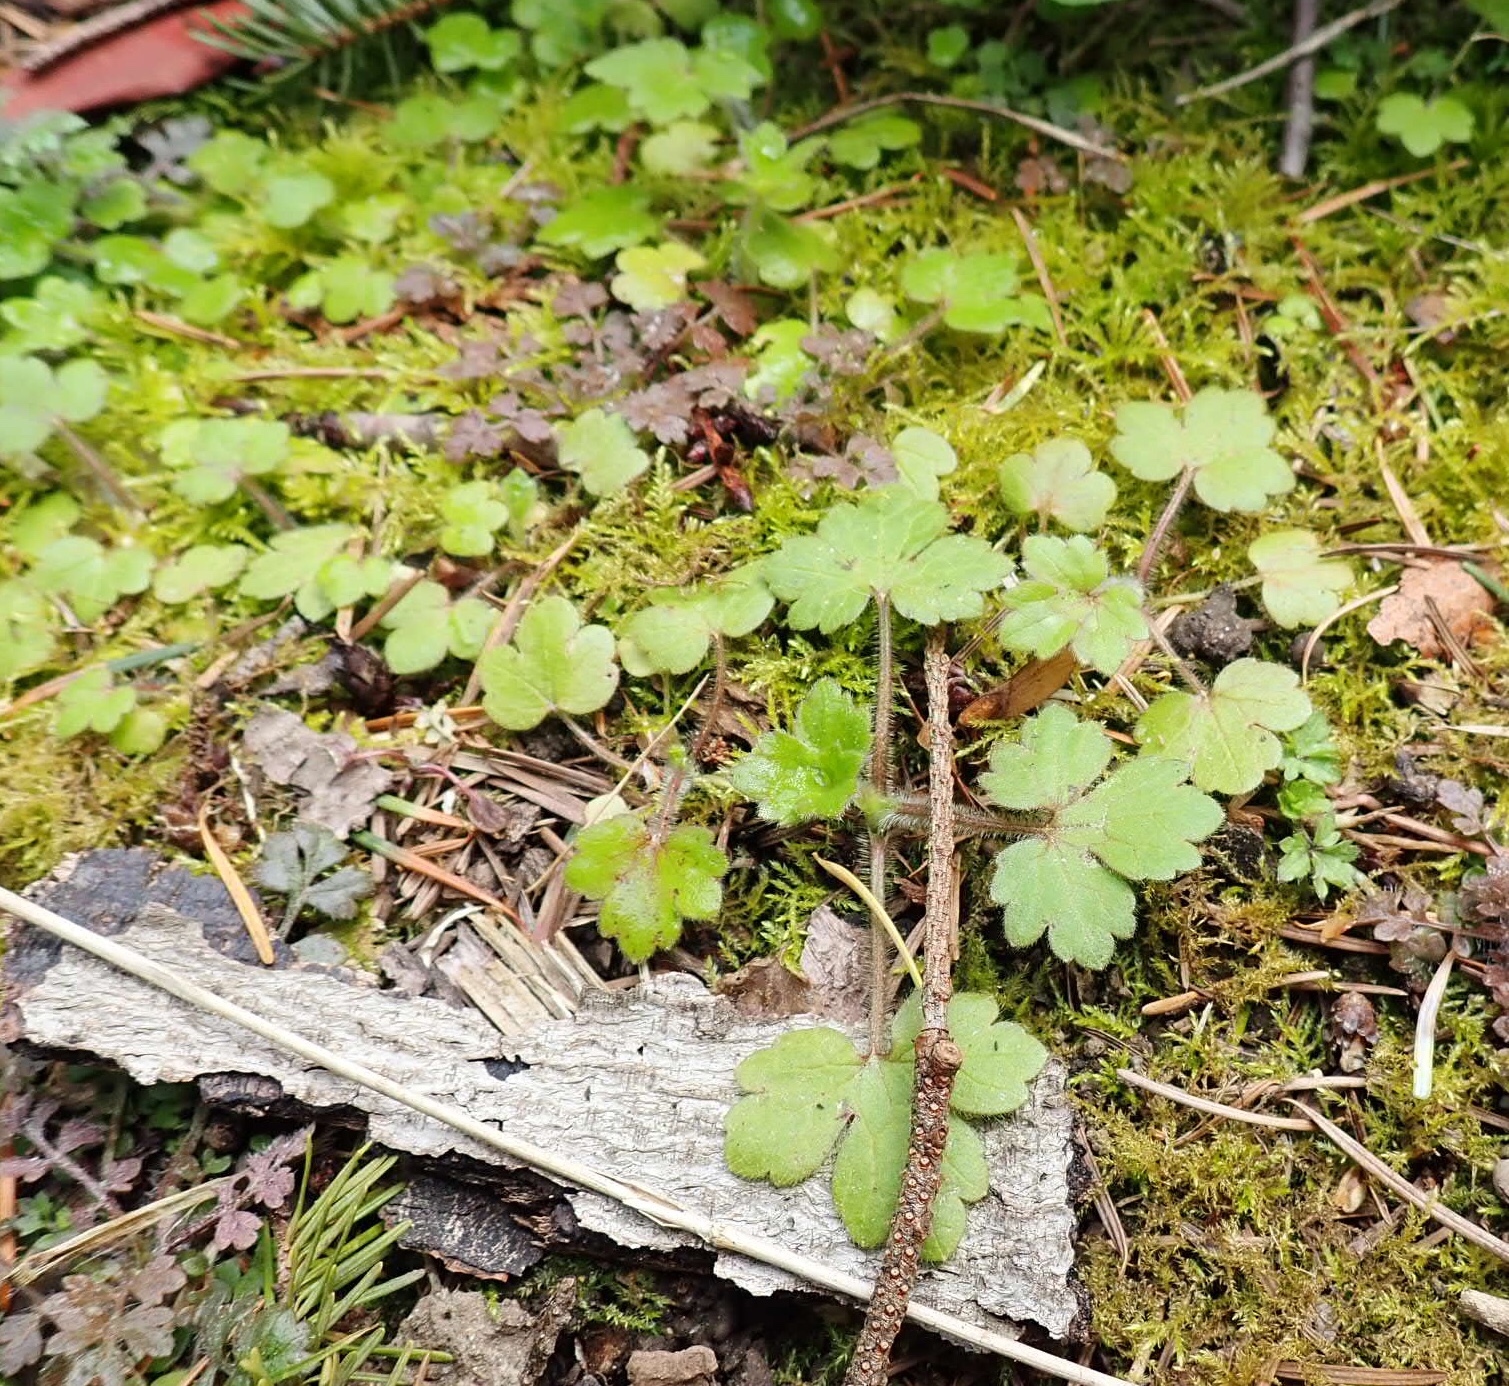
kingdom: Plantae
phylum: Tracheophyta
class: Magnoliopsida
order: Ranunculales
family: Ranunculaceae
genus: Ranunculus
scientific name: Ranunculus uncinatus
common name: Little buttercup
